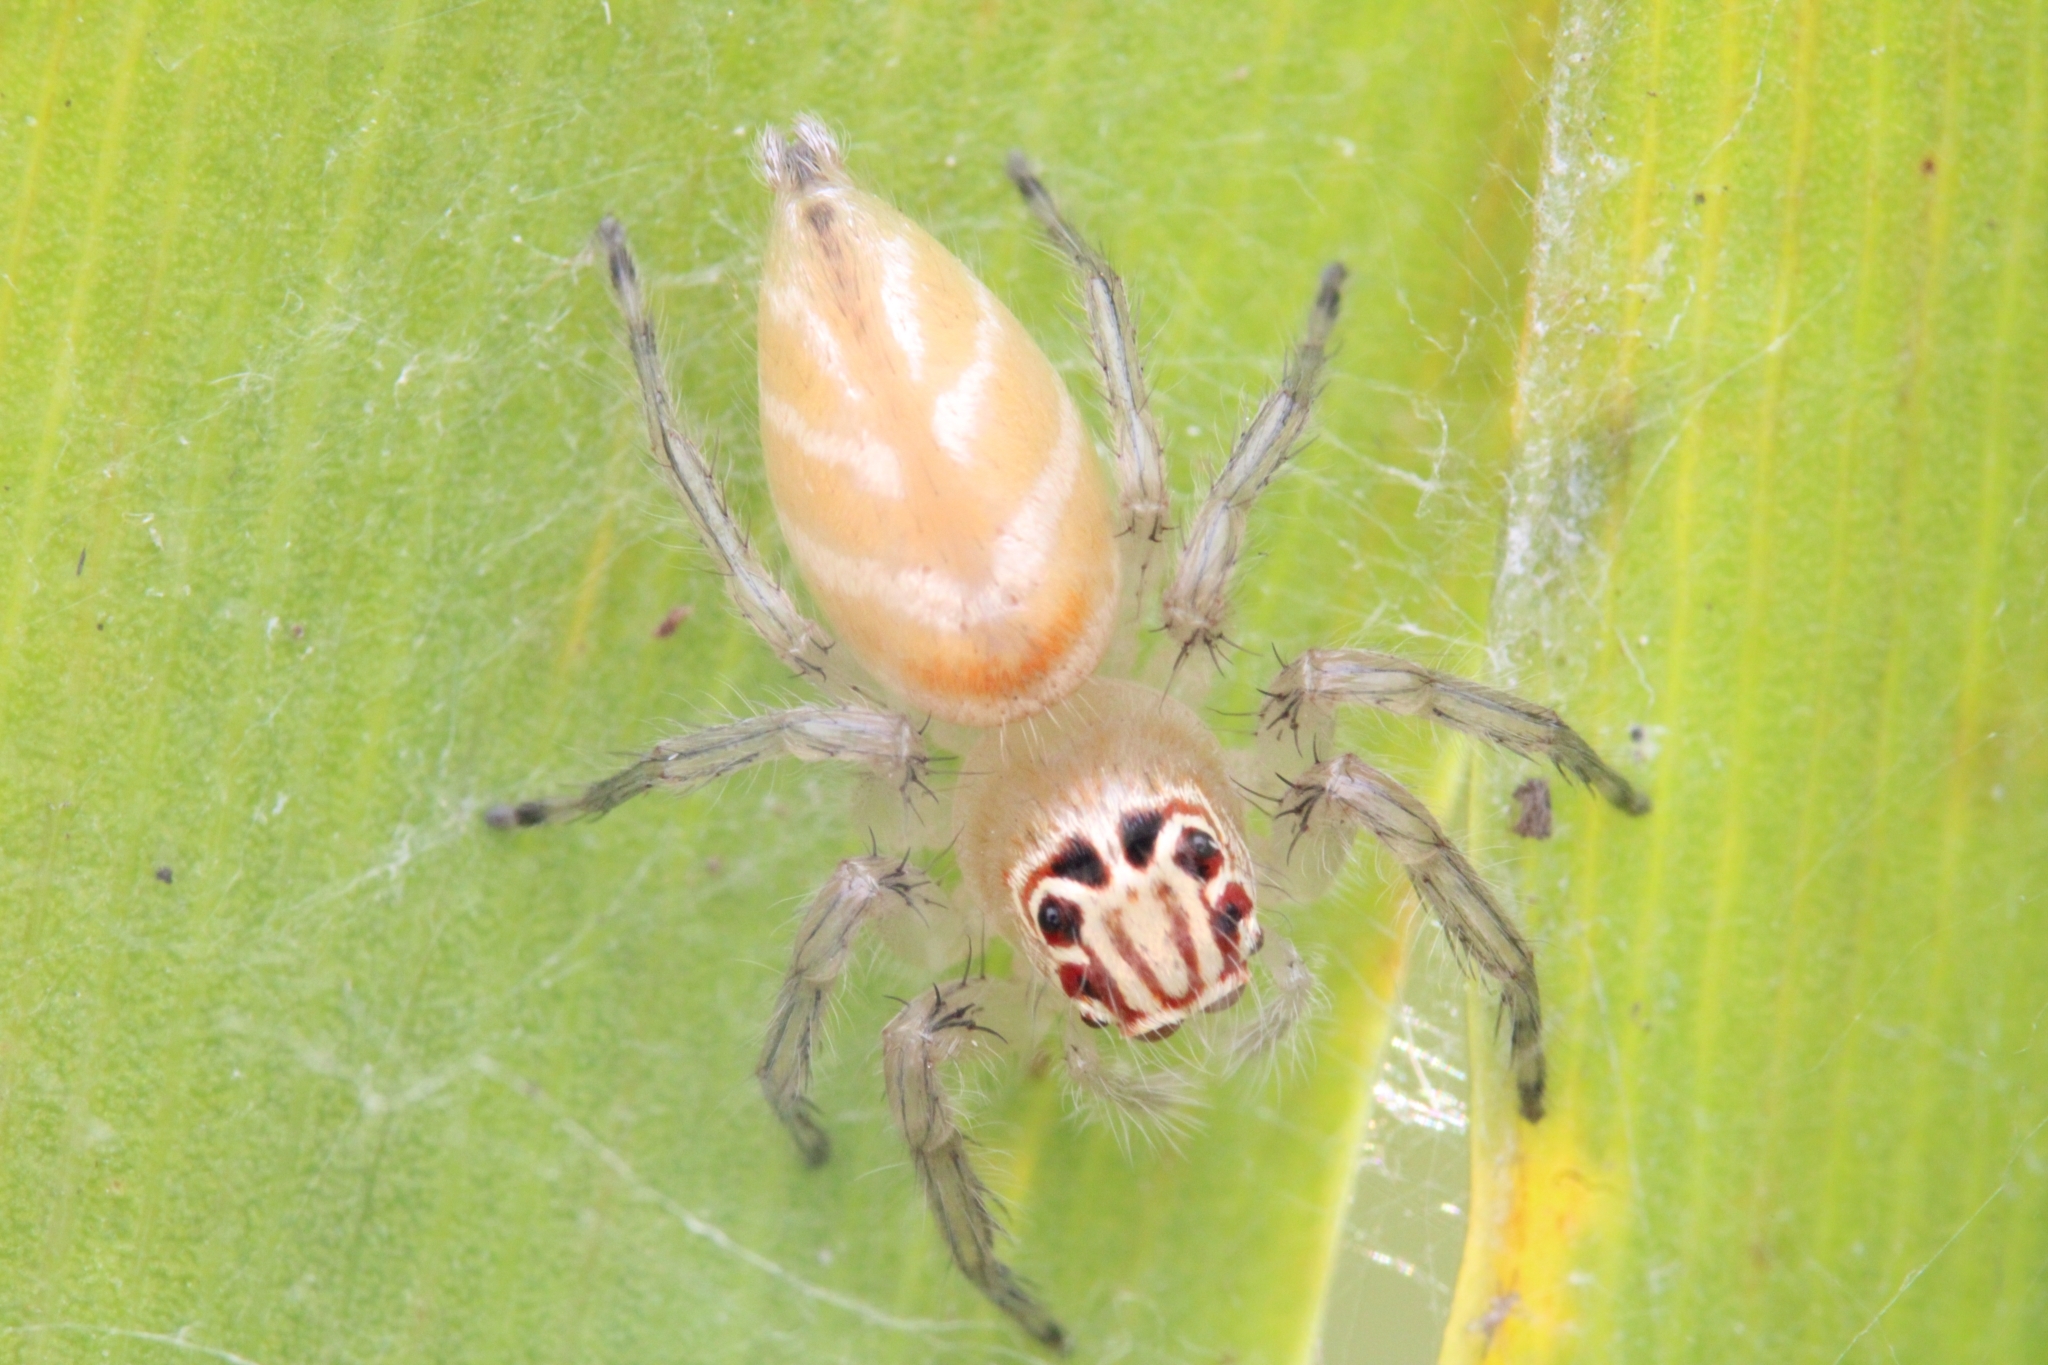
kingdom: Animalia
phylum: Arthropoda
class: Arachnida
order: Araneae
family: Salticidae
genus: Brancus
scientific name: Brancus mustelus
